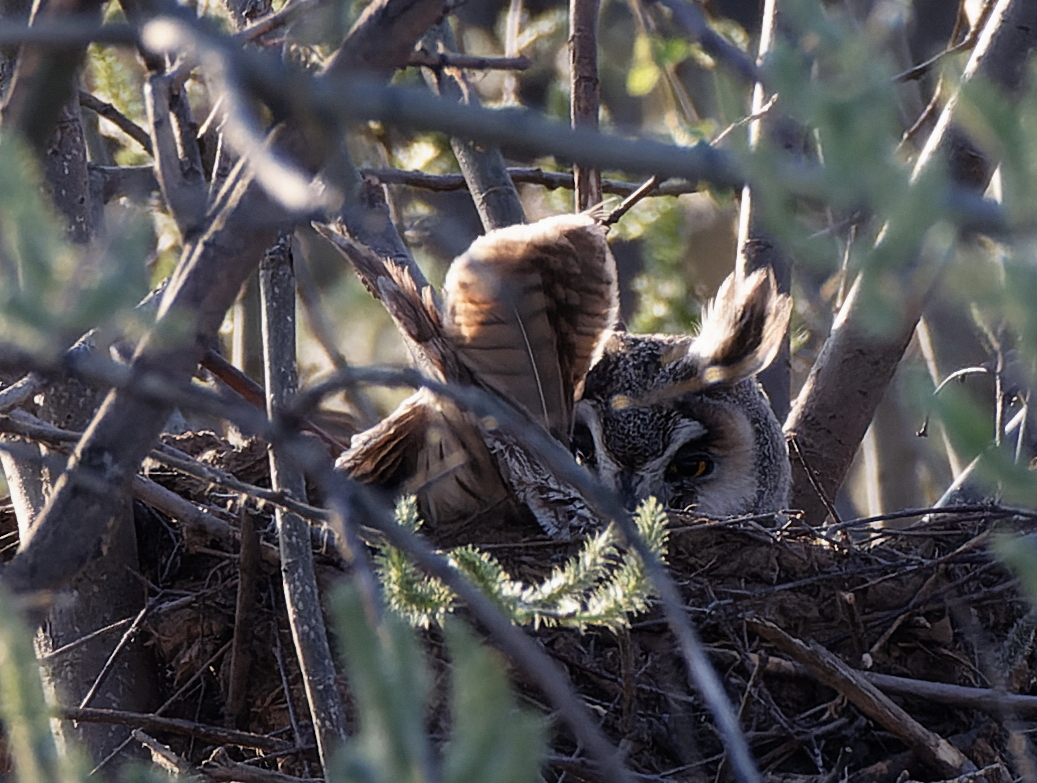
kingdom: Animalia
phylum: Chordata
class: Aves
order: Strigiformes
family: Strigidae
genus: Asio
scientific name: Asio otus
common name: Long-eared owl
